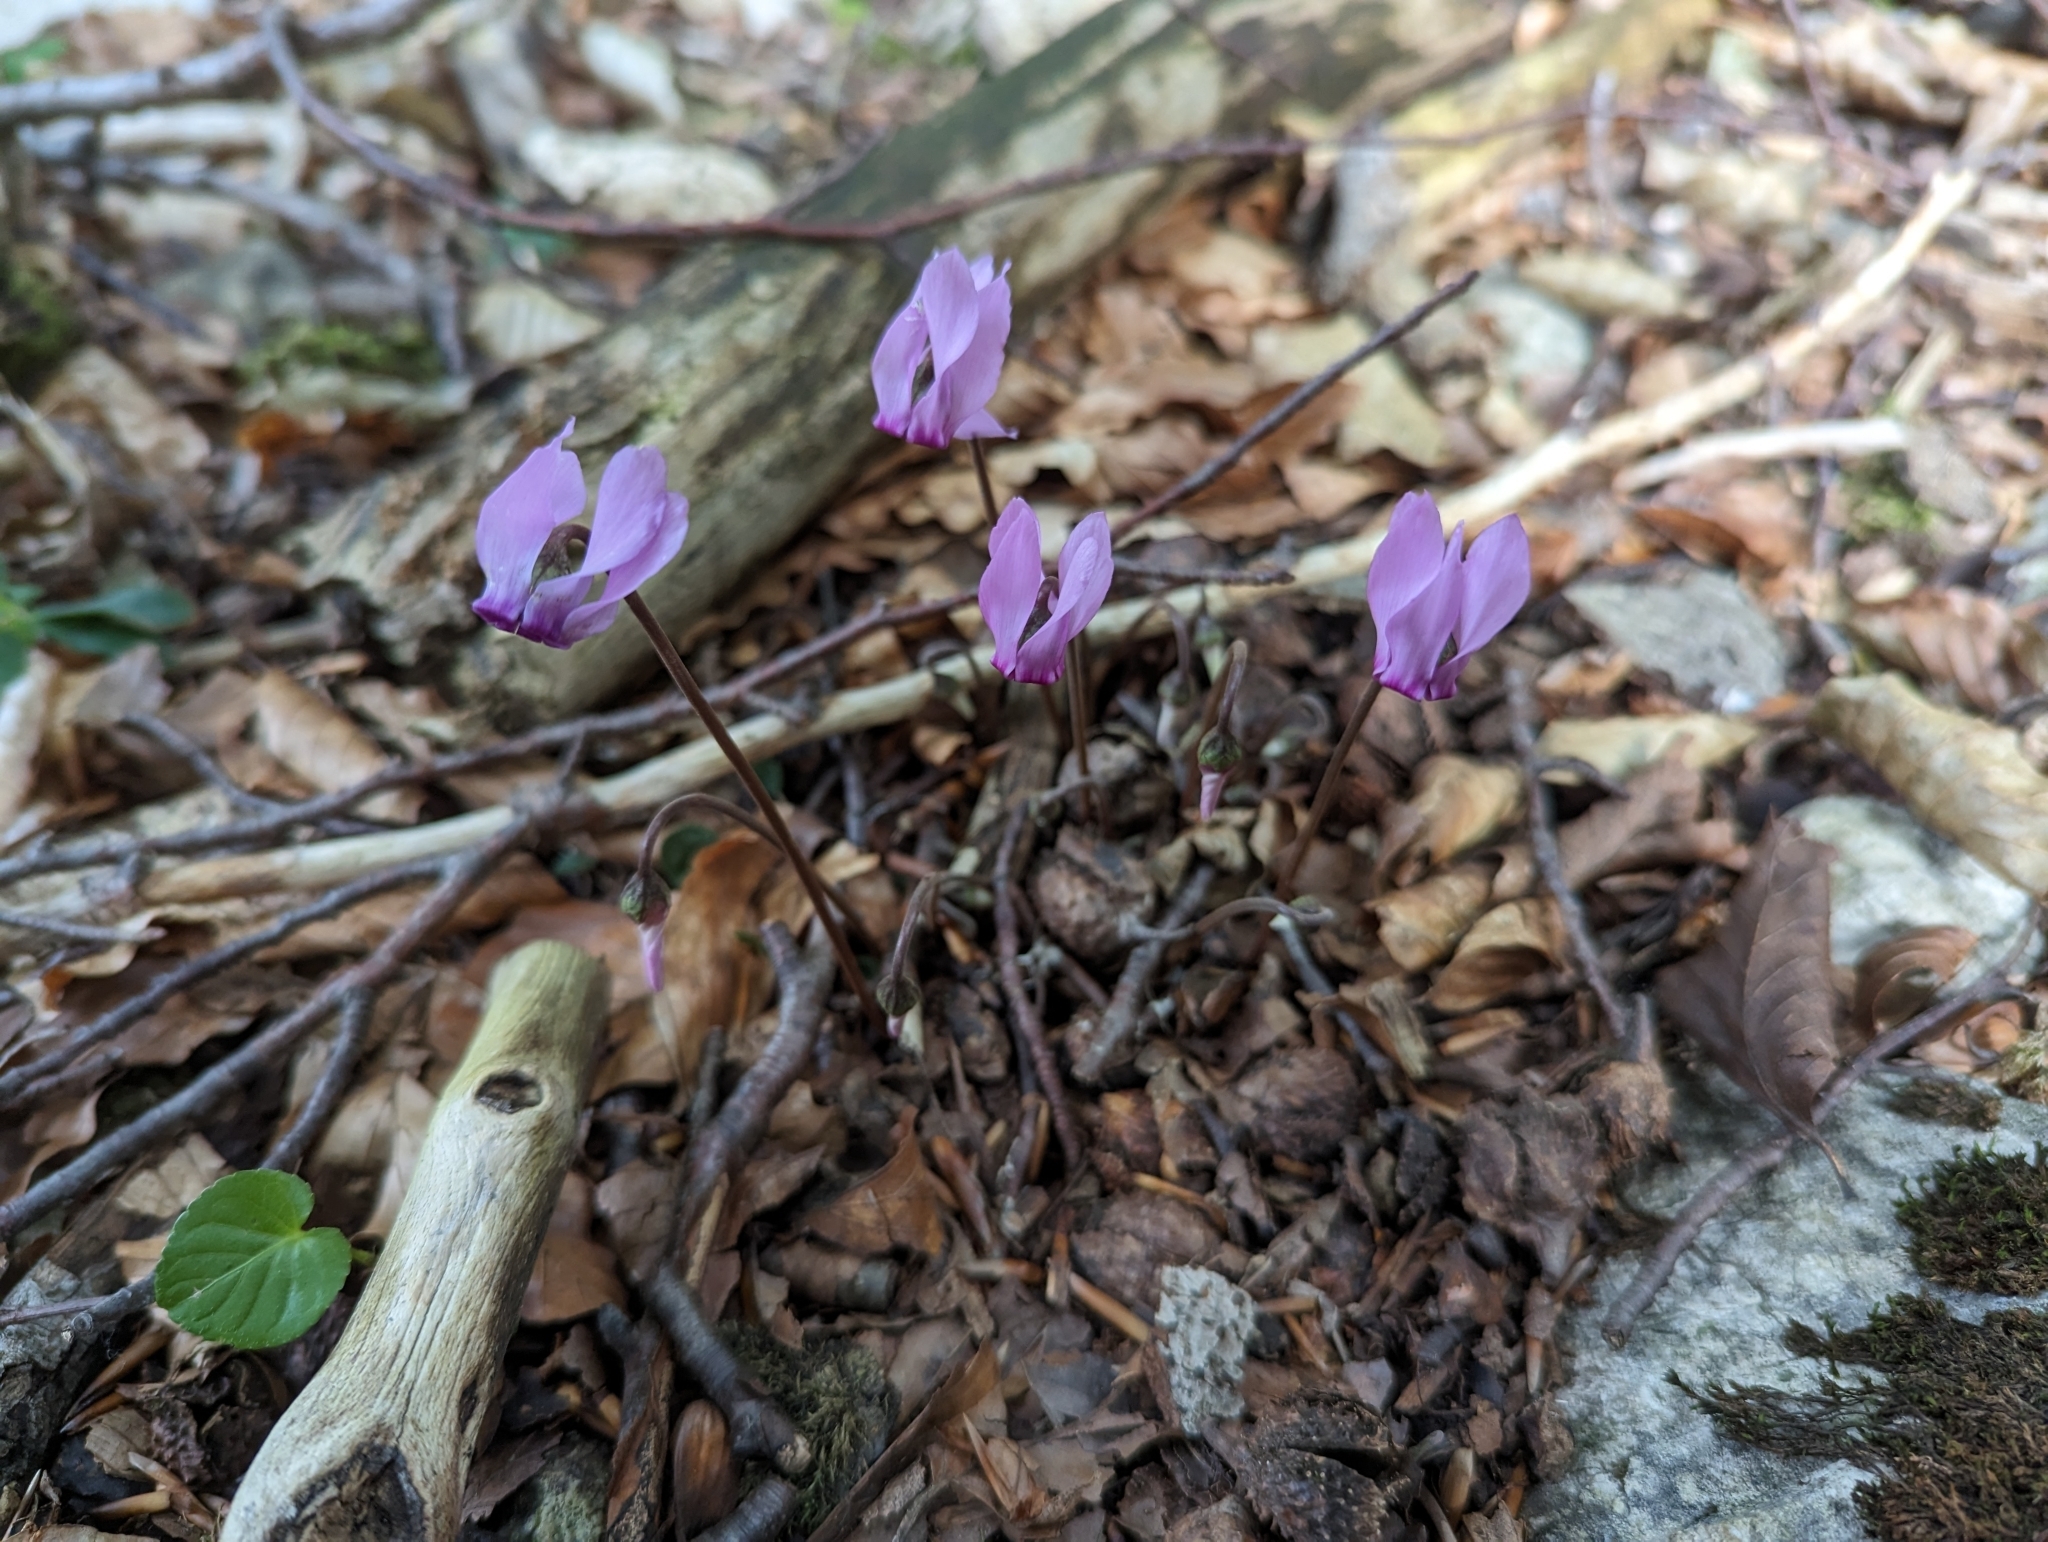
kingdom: Plantae
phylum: Tracheophyta
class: Magnoliopsida
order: Ericales
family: Primulaceae
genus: Cyclamen
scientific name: Cyclamen purpurascens
